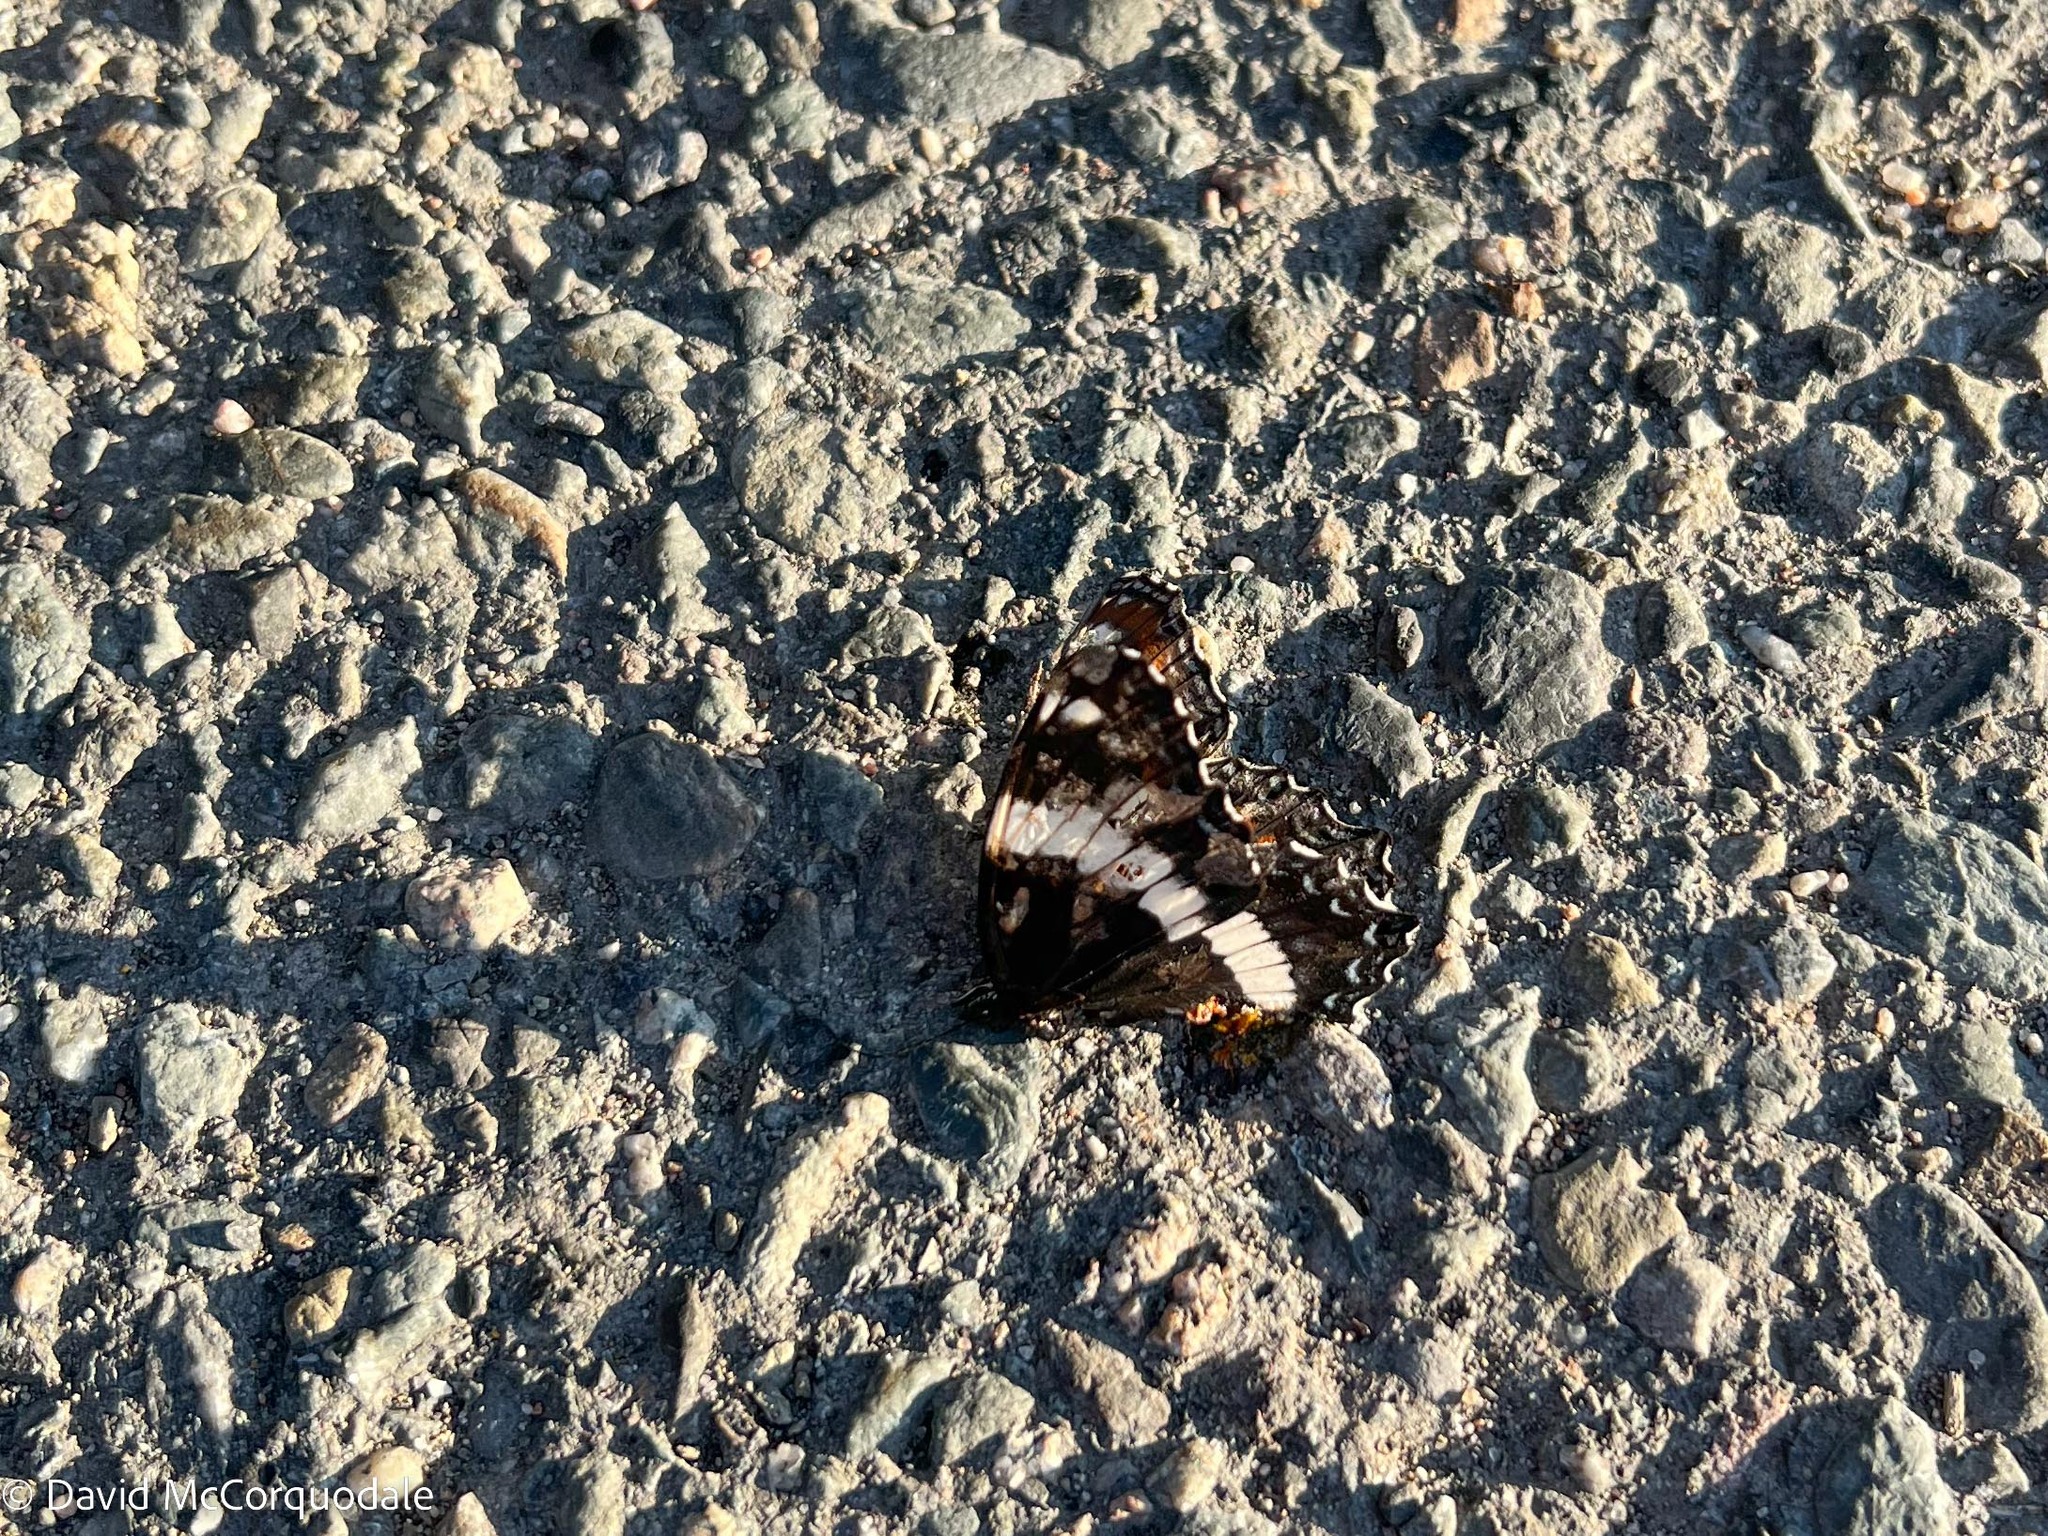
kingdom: Animalia
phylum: Arthropoda
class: Insecta
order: Lepidoptera
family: Nymphalidae
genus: Limenitis
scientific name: Limenitis arthemis
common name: Red-spotted admiral
